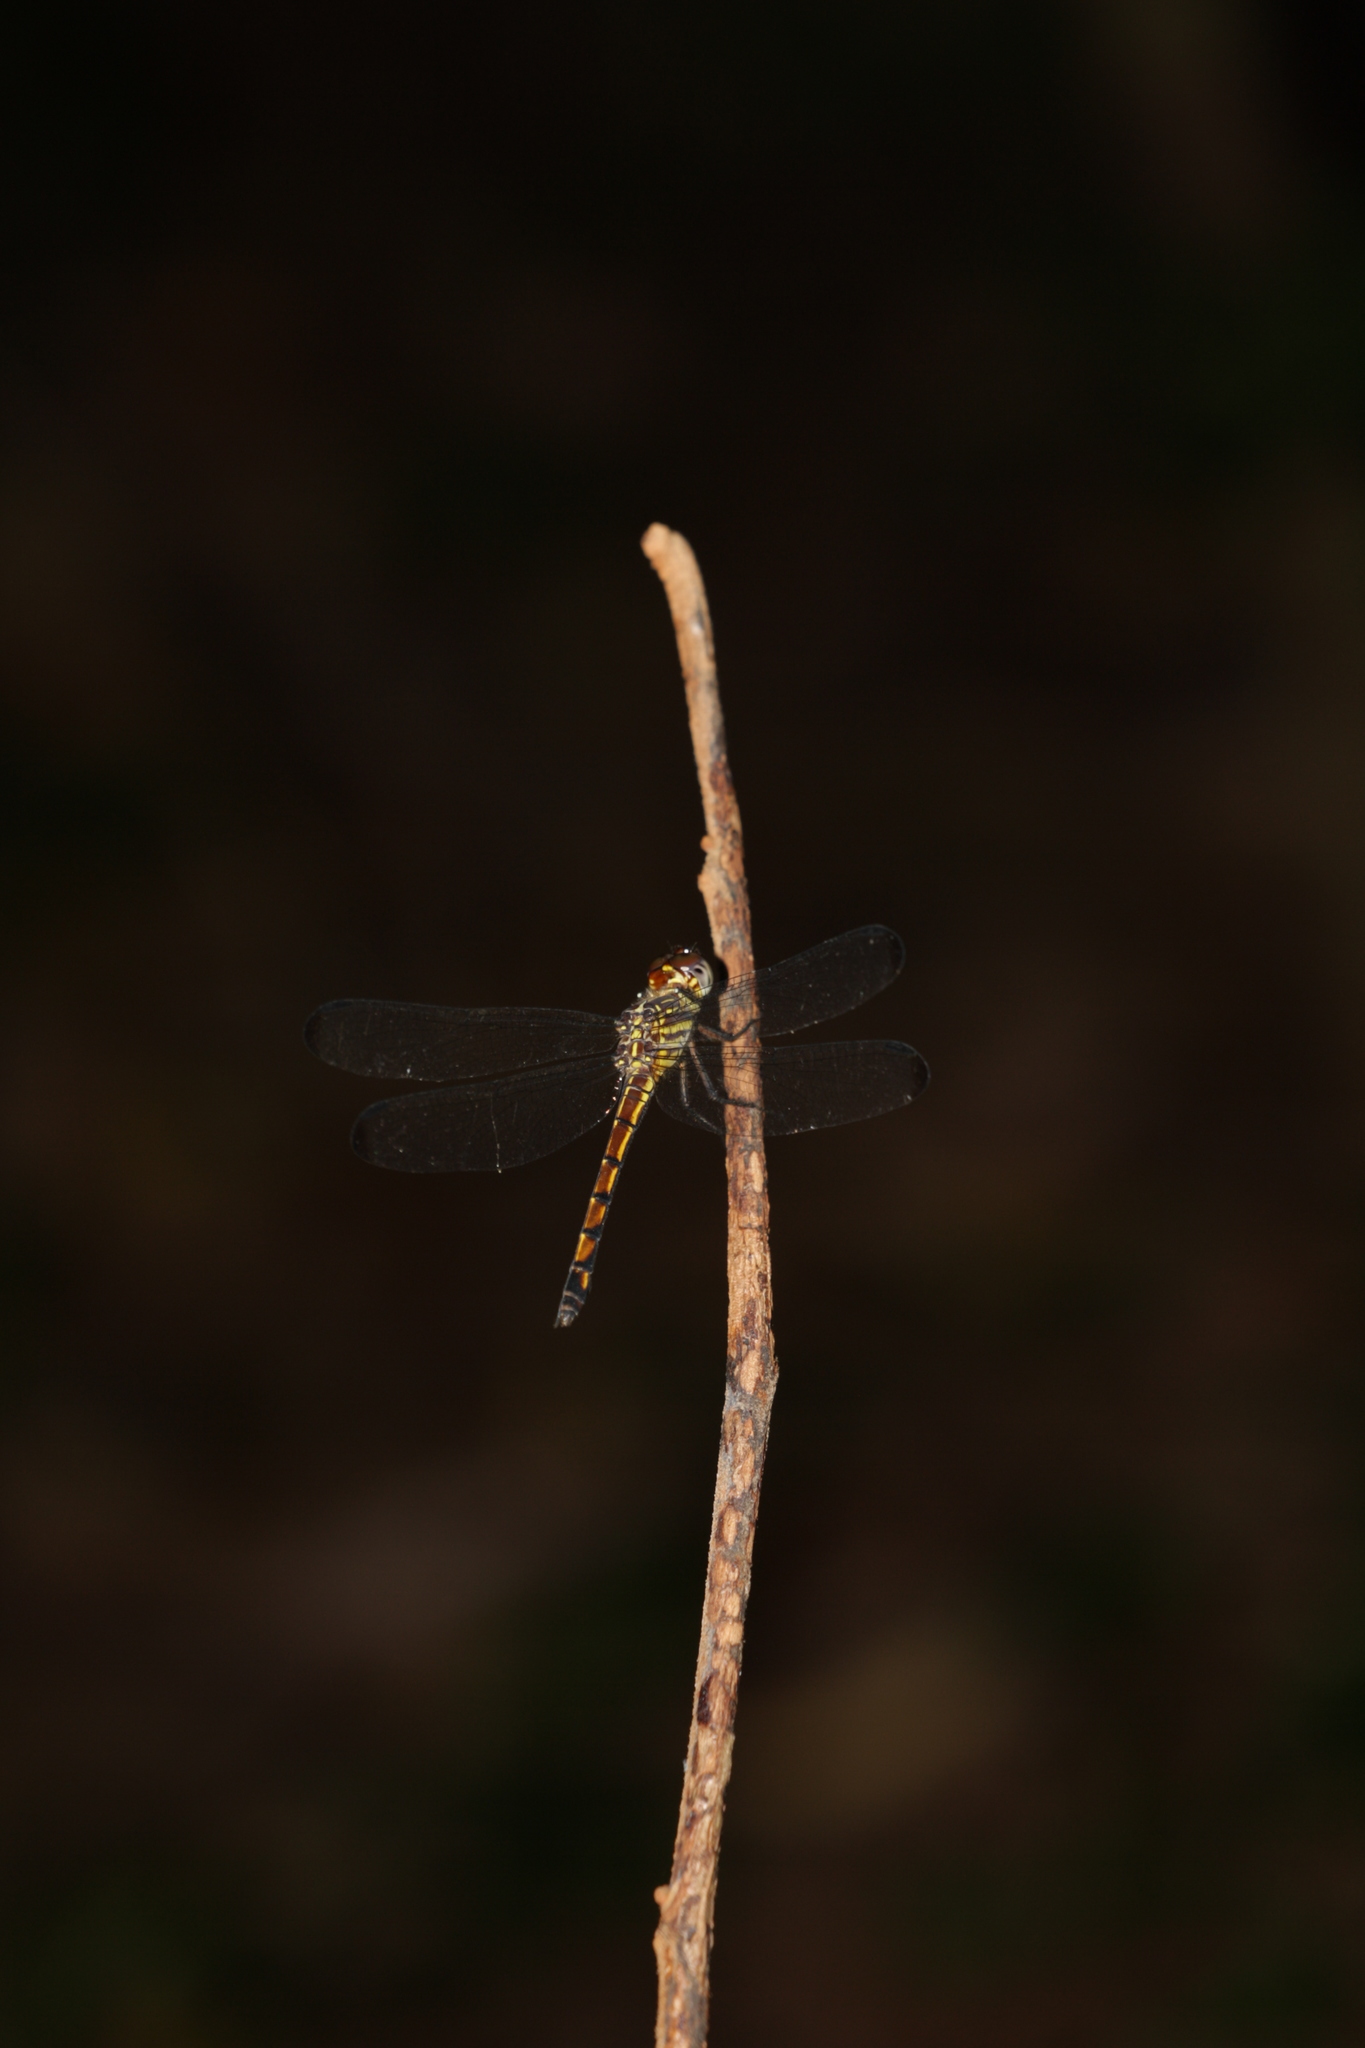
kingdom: Animalia
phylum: Arthropoda
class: Insecta
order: Odonata
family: Libellulidae
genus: Cannaphila
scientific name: Cannaphila insularis
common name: Gray-waisted skimmer
